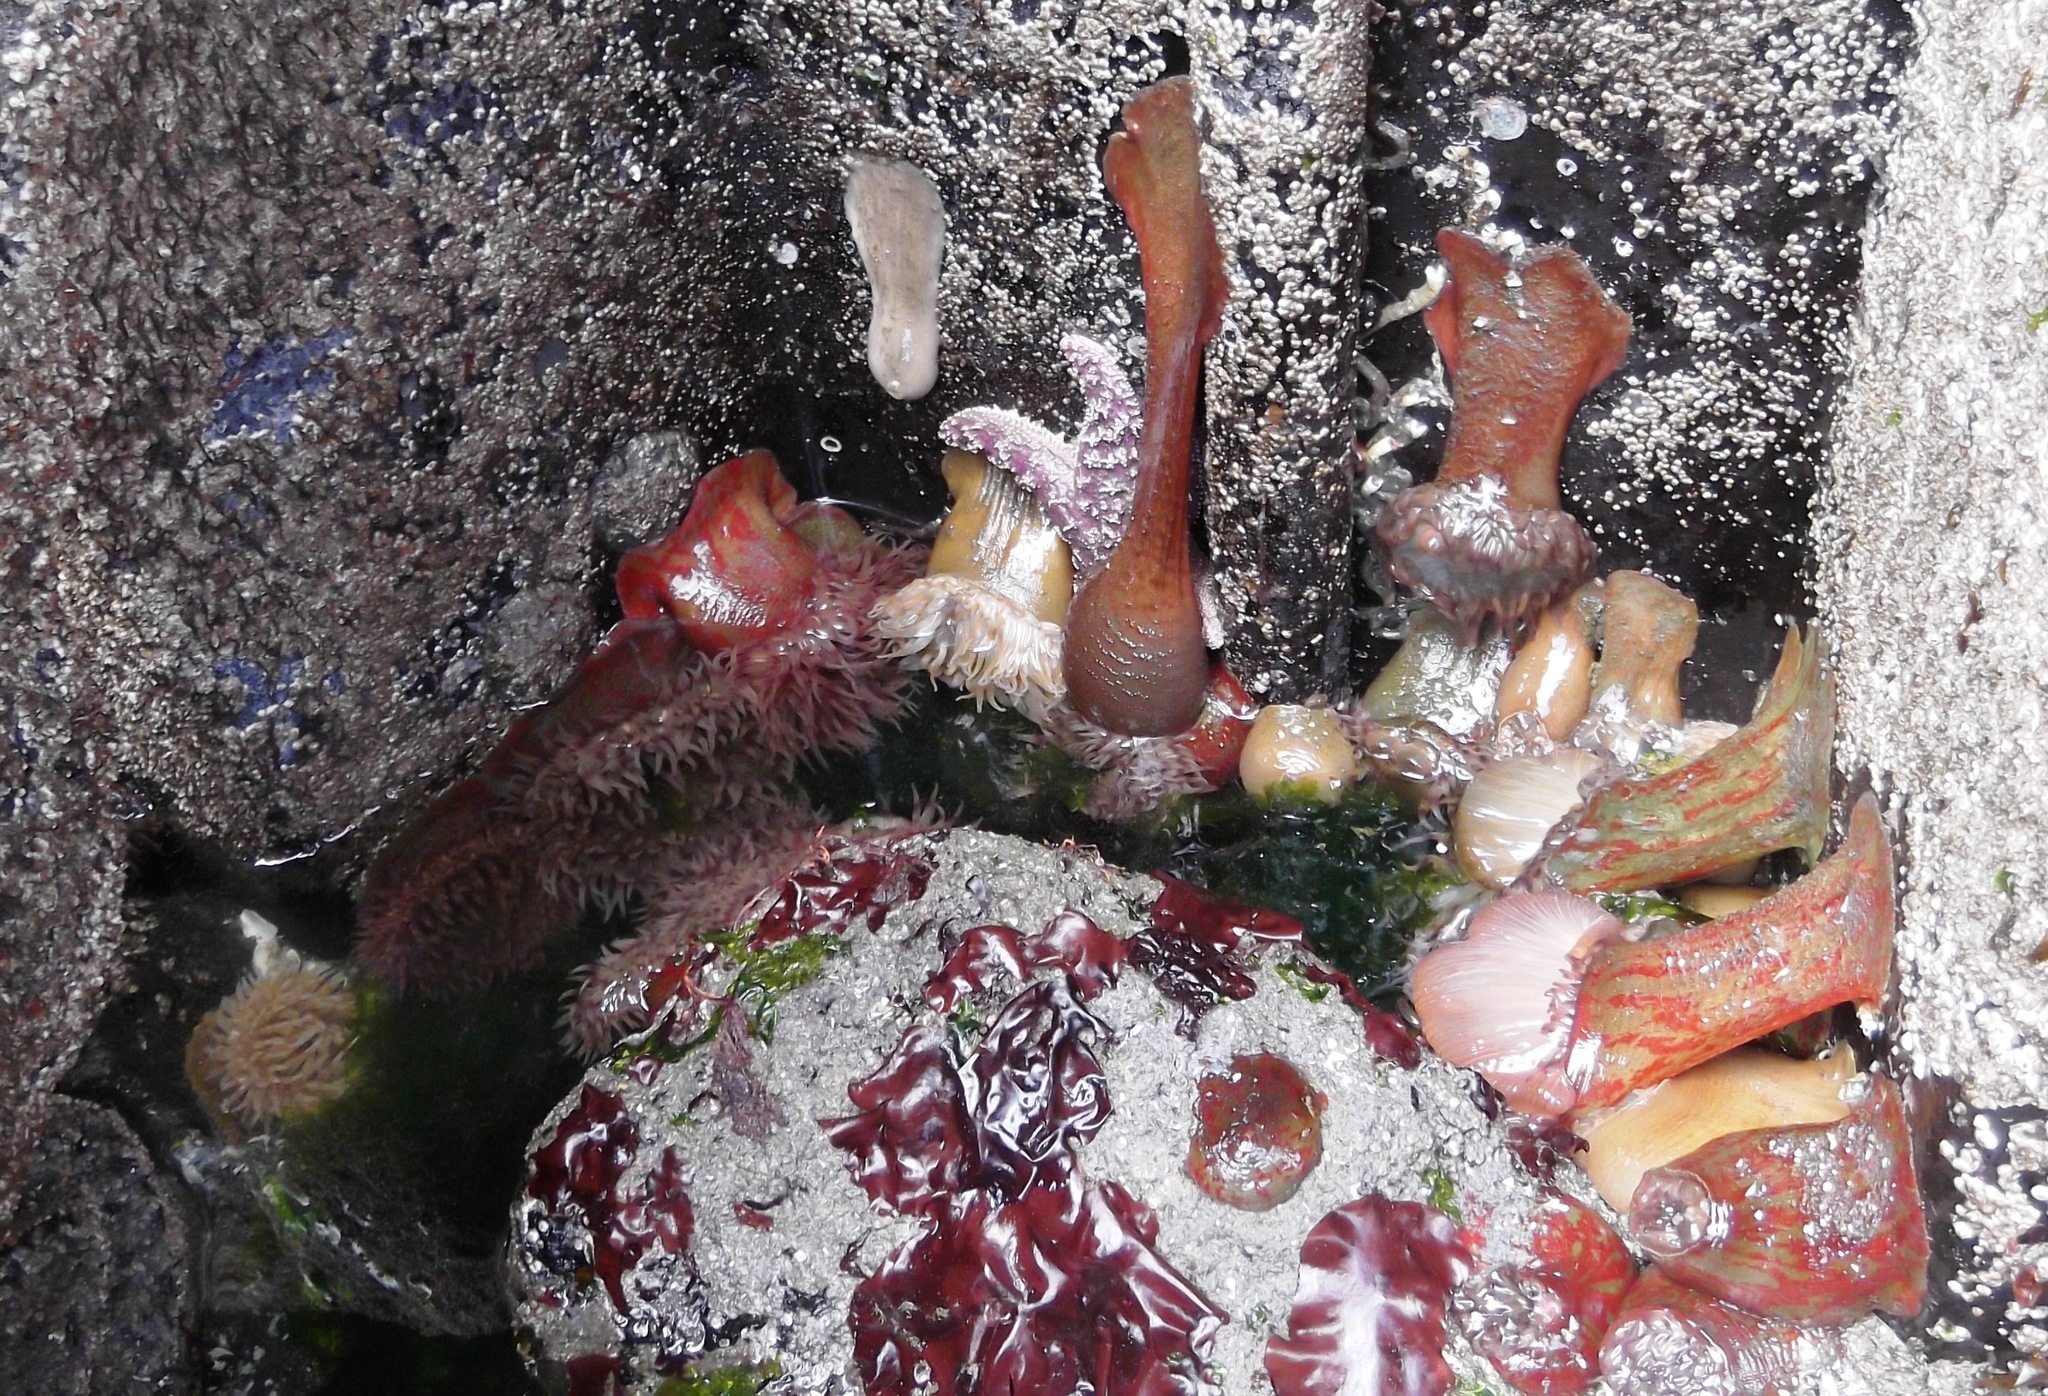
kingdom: Animalia
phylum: Cnidaria
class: Anthozoa
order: Actiniaria
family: Actiniidae
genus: Urticina
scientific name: Urticina grebelnyi
